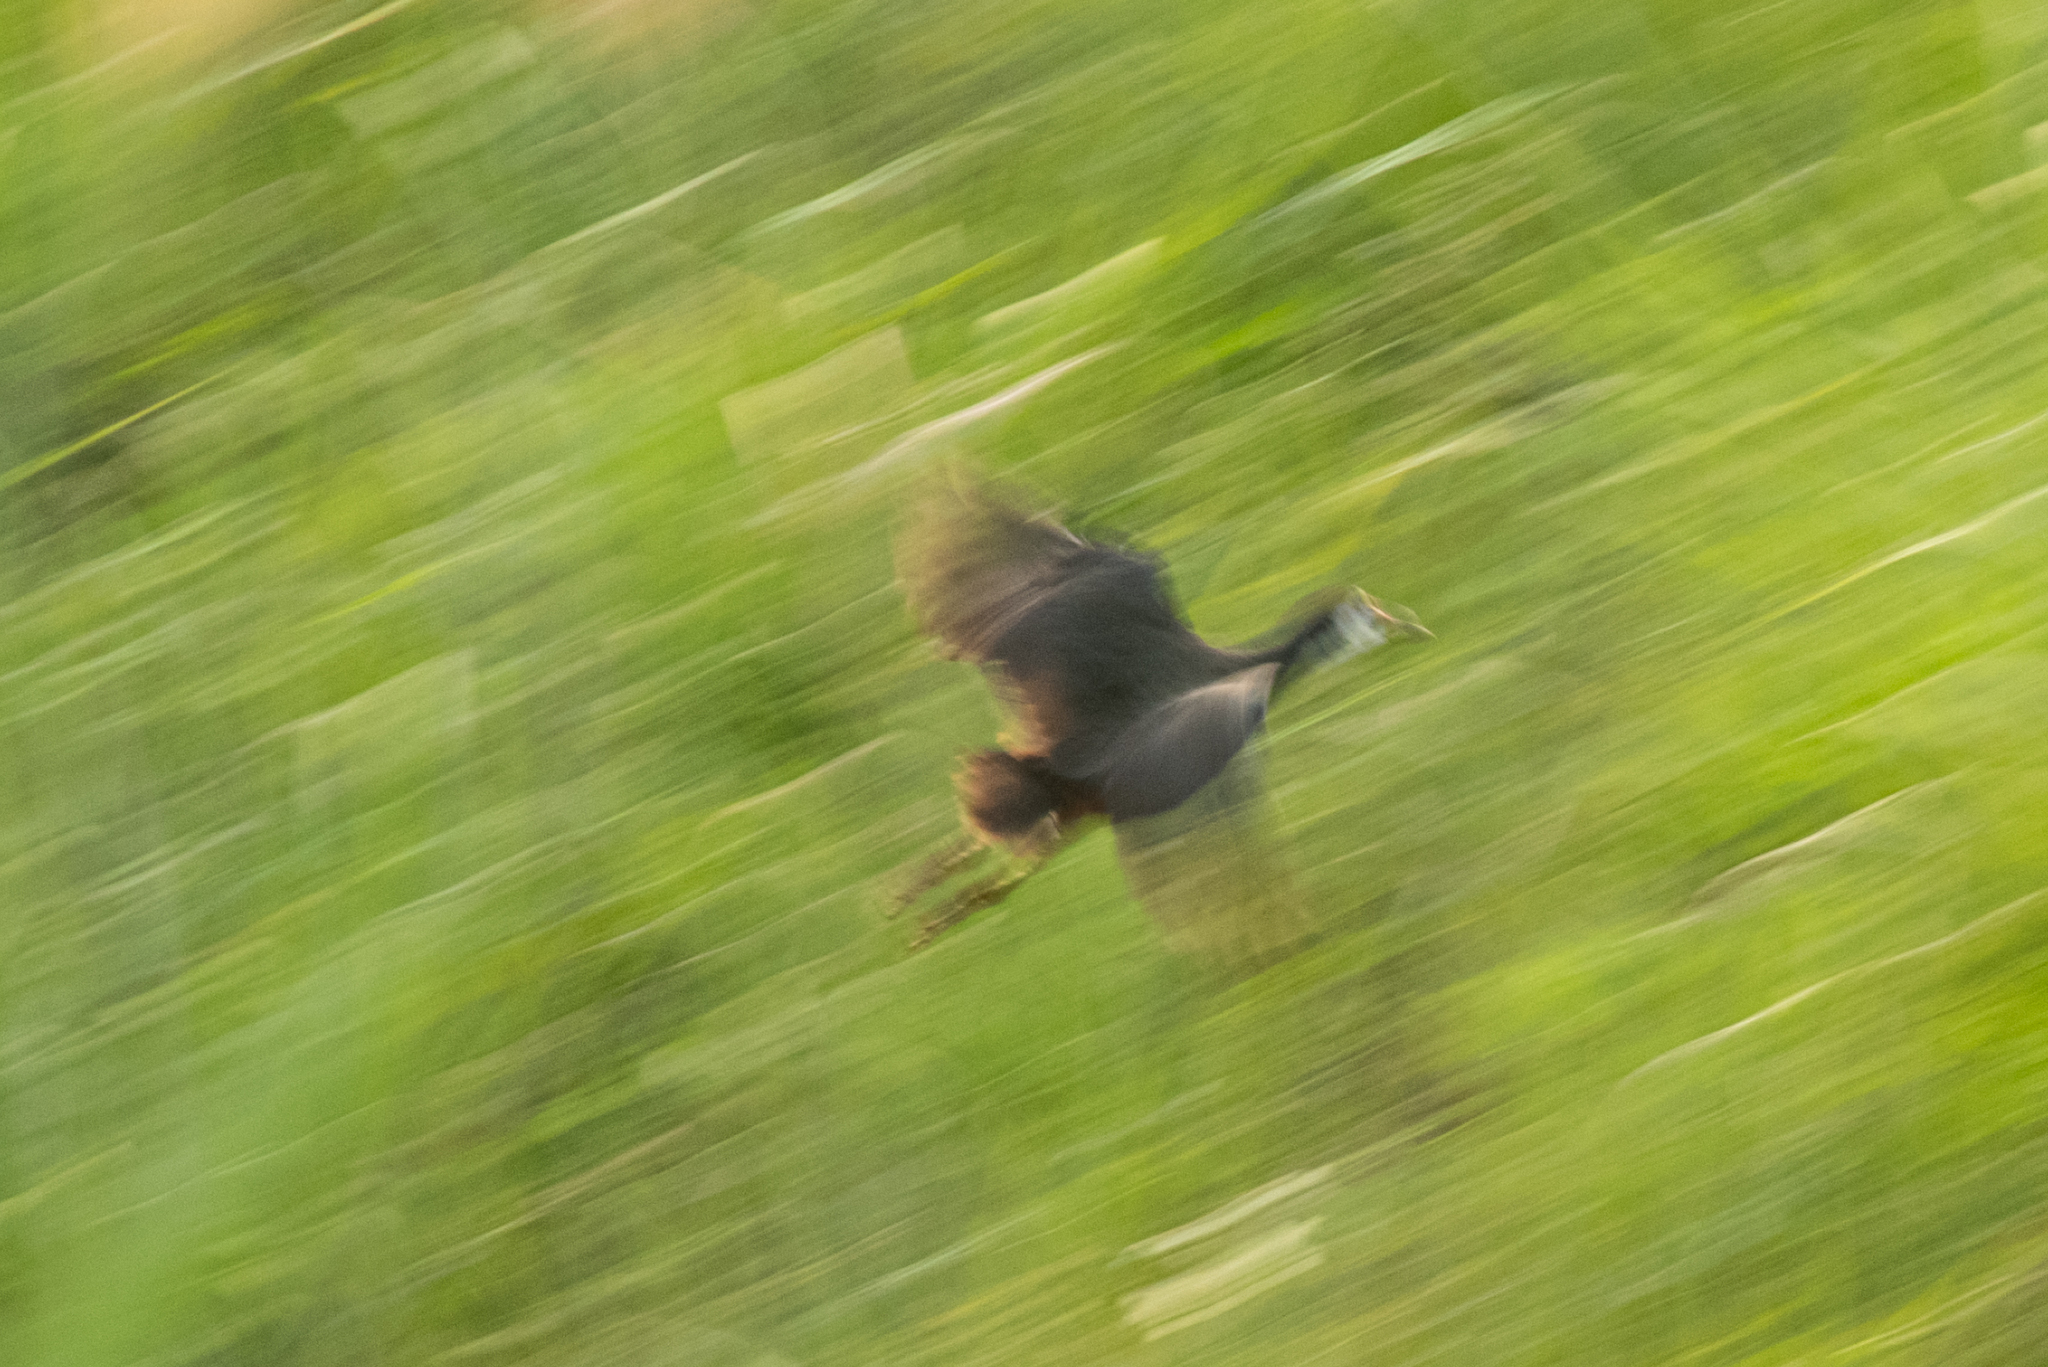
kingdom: Animalia
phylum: Chordata
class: Aves
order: Gruiformes
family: Rallidae
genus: Amaurornis
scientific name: Amaurornis phoenicurus
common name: White-breasted waterhen
